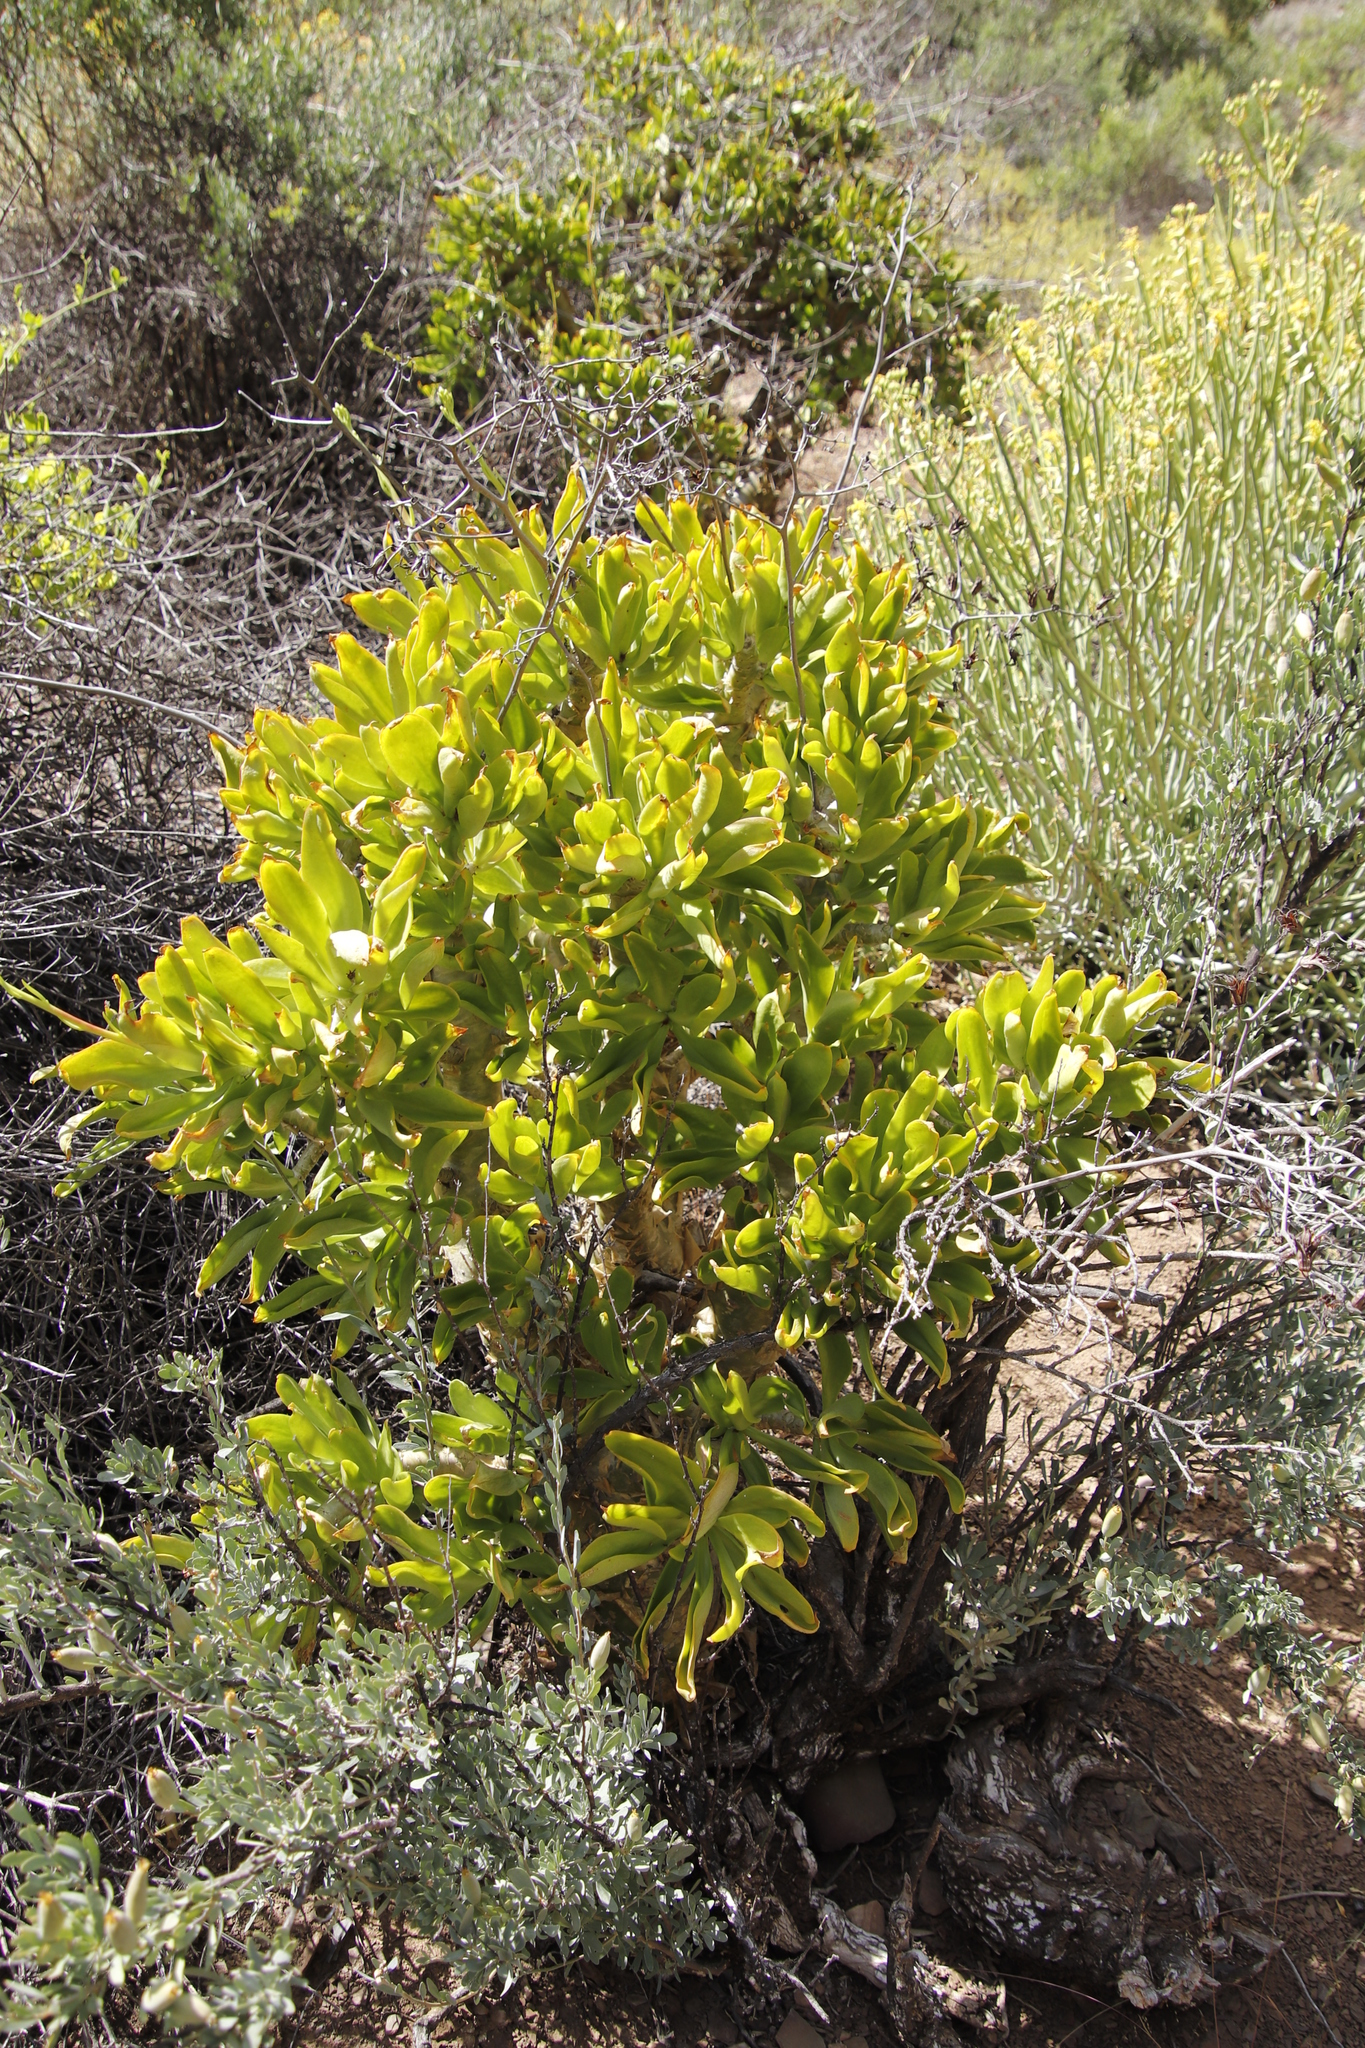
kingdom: Plantae
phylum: Tracheophyta
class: Magnoliopsida
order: Saxifragales
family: Crassulaceae
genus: Tylecodon
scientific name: Tylecodon paniculatus
